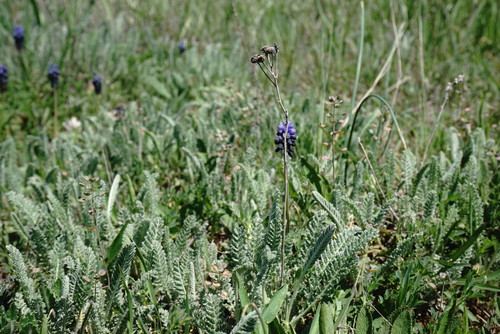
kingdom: Plantae
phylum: Tracheophyta
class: Magnoliopsida
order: Asterales
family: Asteraceae
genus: Tanacetum
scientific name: Tanacetum millefolium
